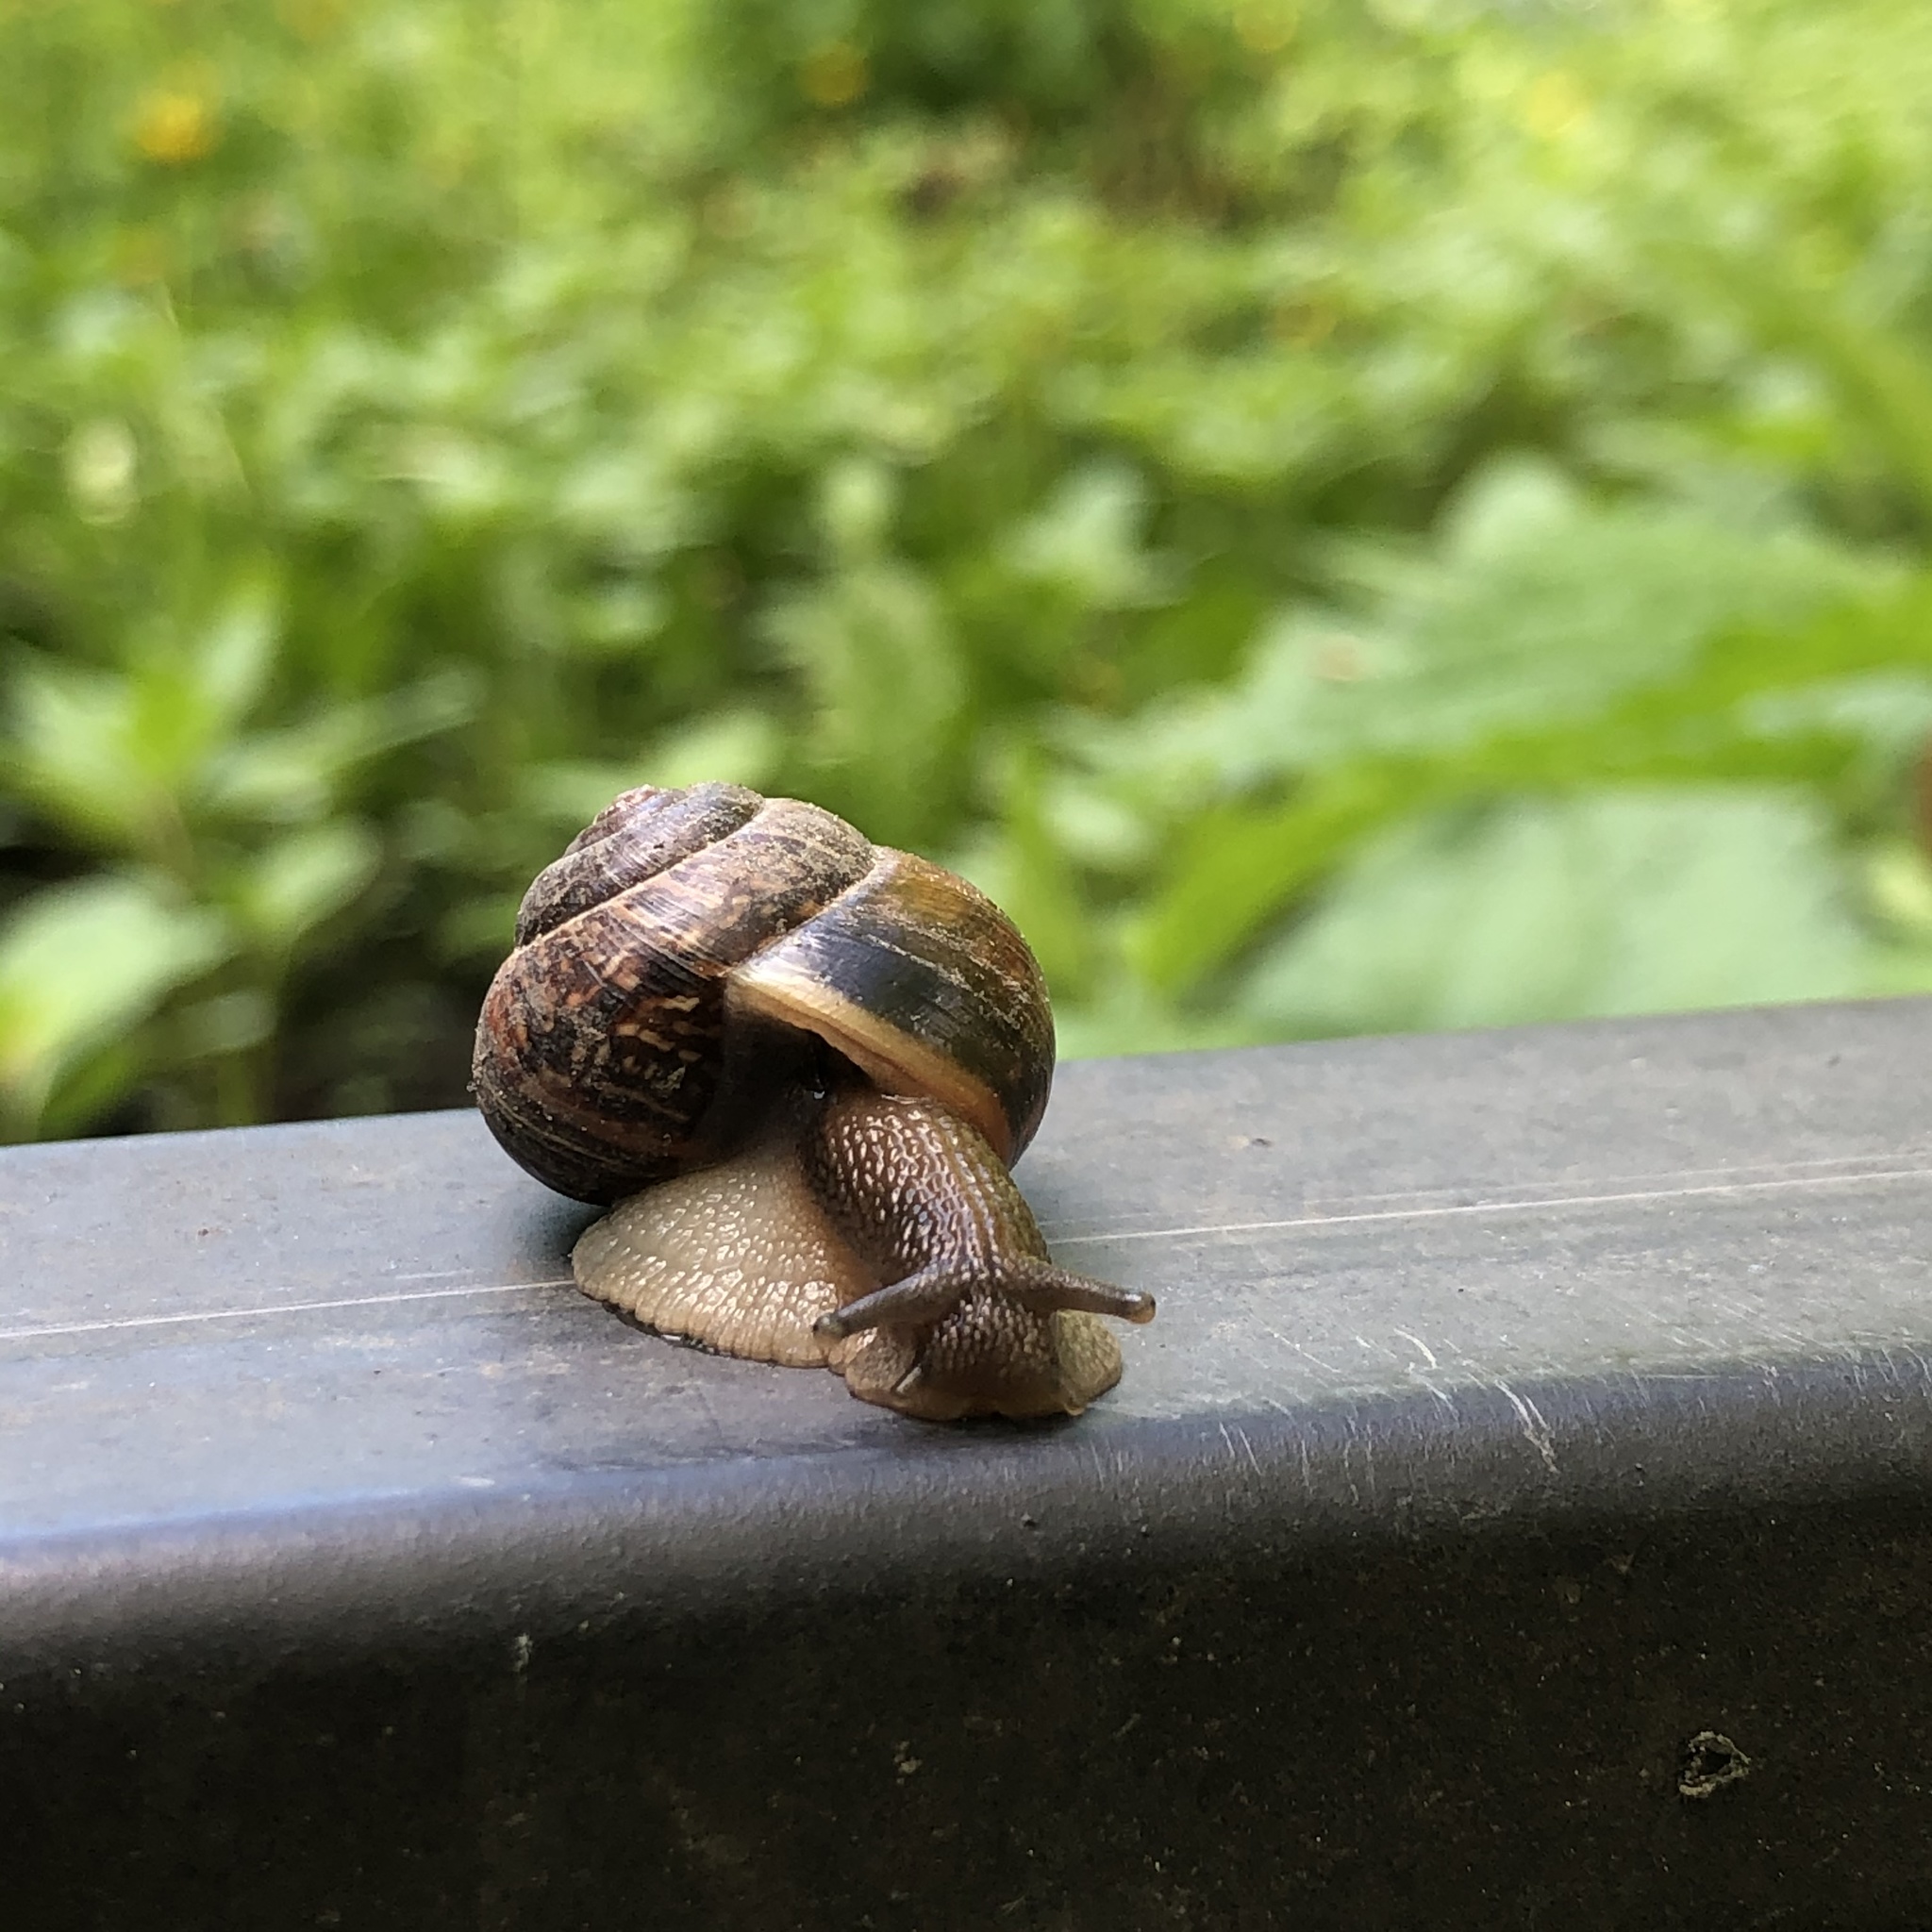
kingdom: Animalia
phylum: Mollusca
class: Gastropoda
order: Stylommatophora
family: Helicidae
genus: Arianta
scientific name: Arianta arbustorum
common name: Copse snail
